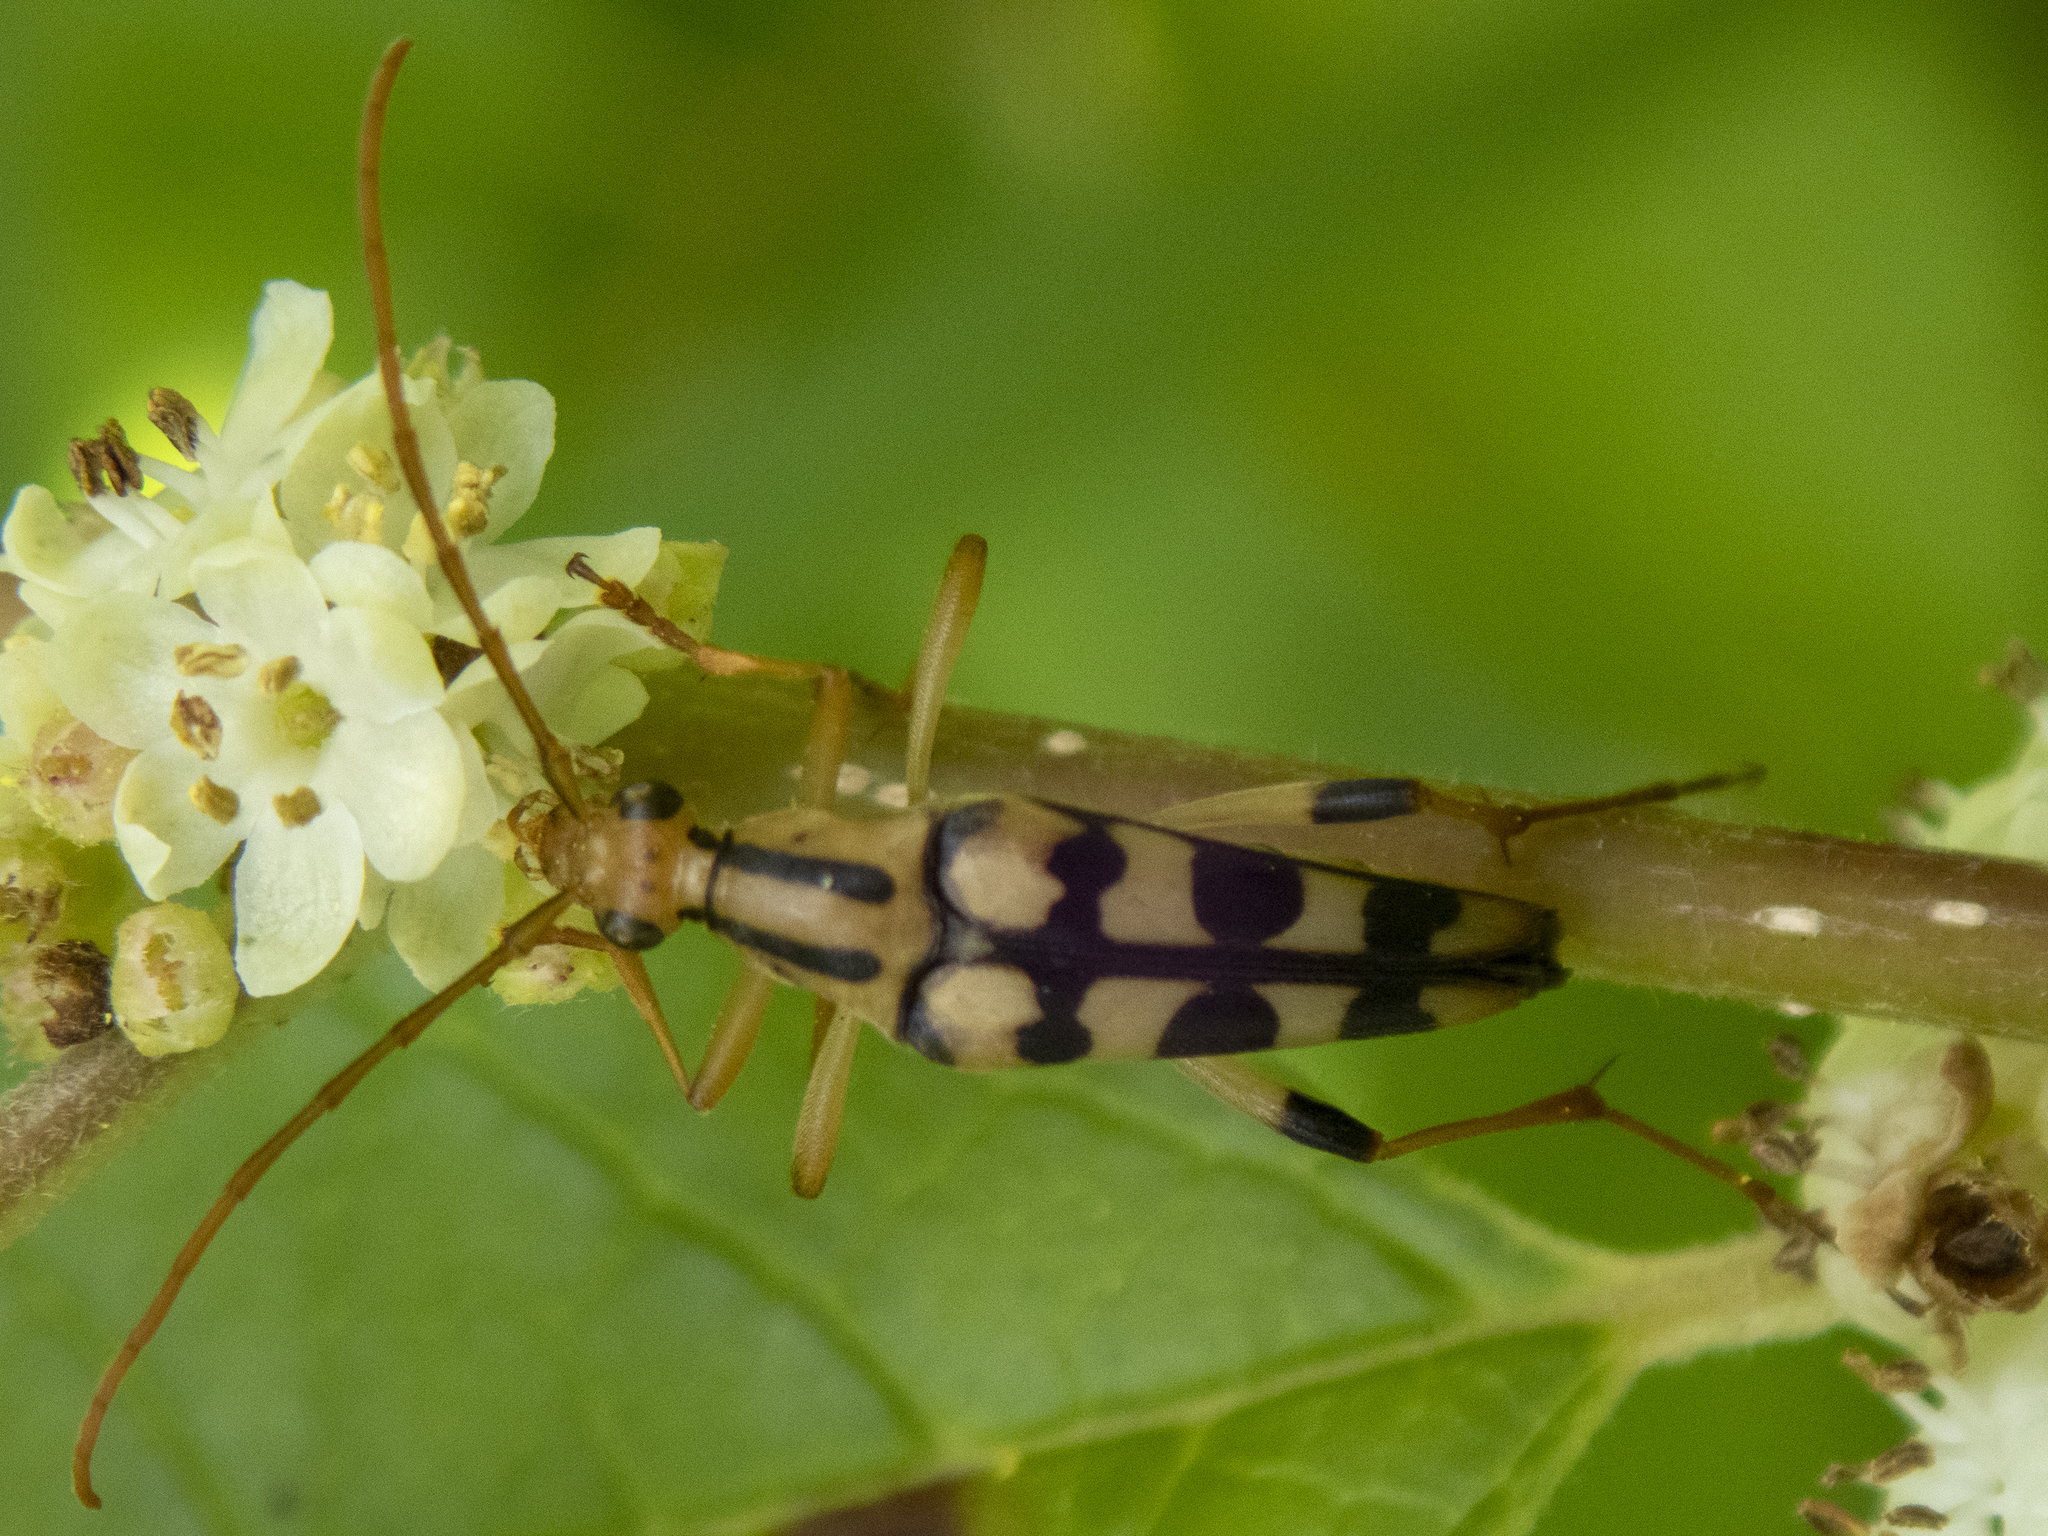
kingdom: Animalia
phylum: Arthropoda
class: Insecta
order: Coleoptera
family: Cerambycidae
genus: Strangalia
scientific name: Strangalia luteicornis
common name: Yellow-horned flower longhorn beetle
